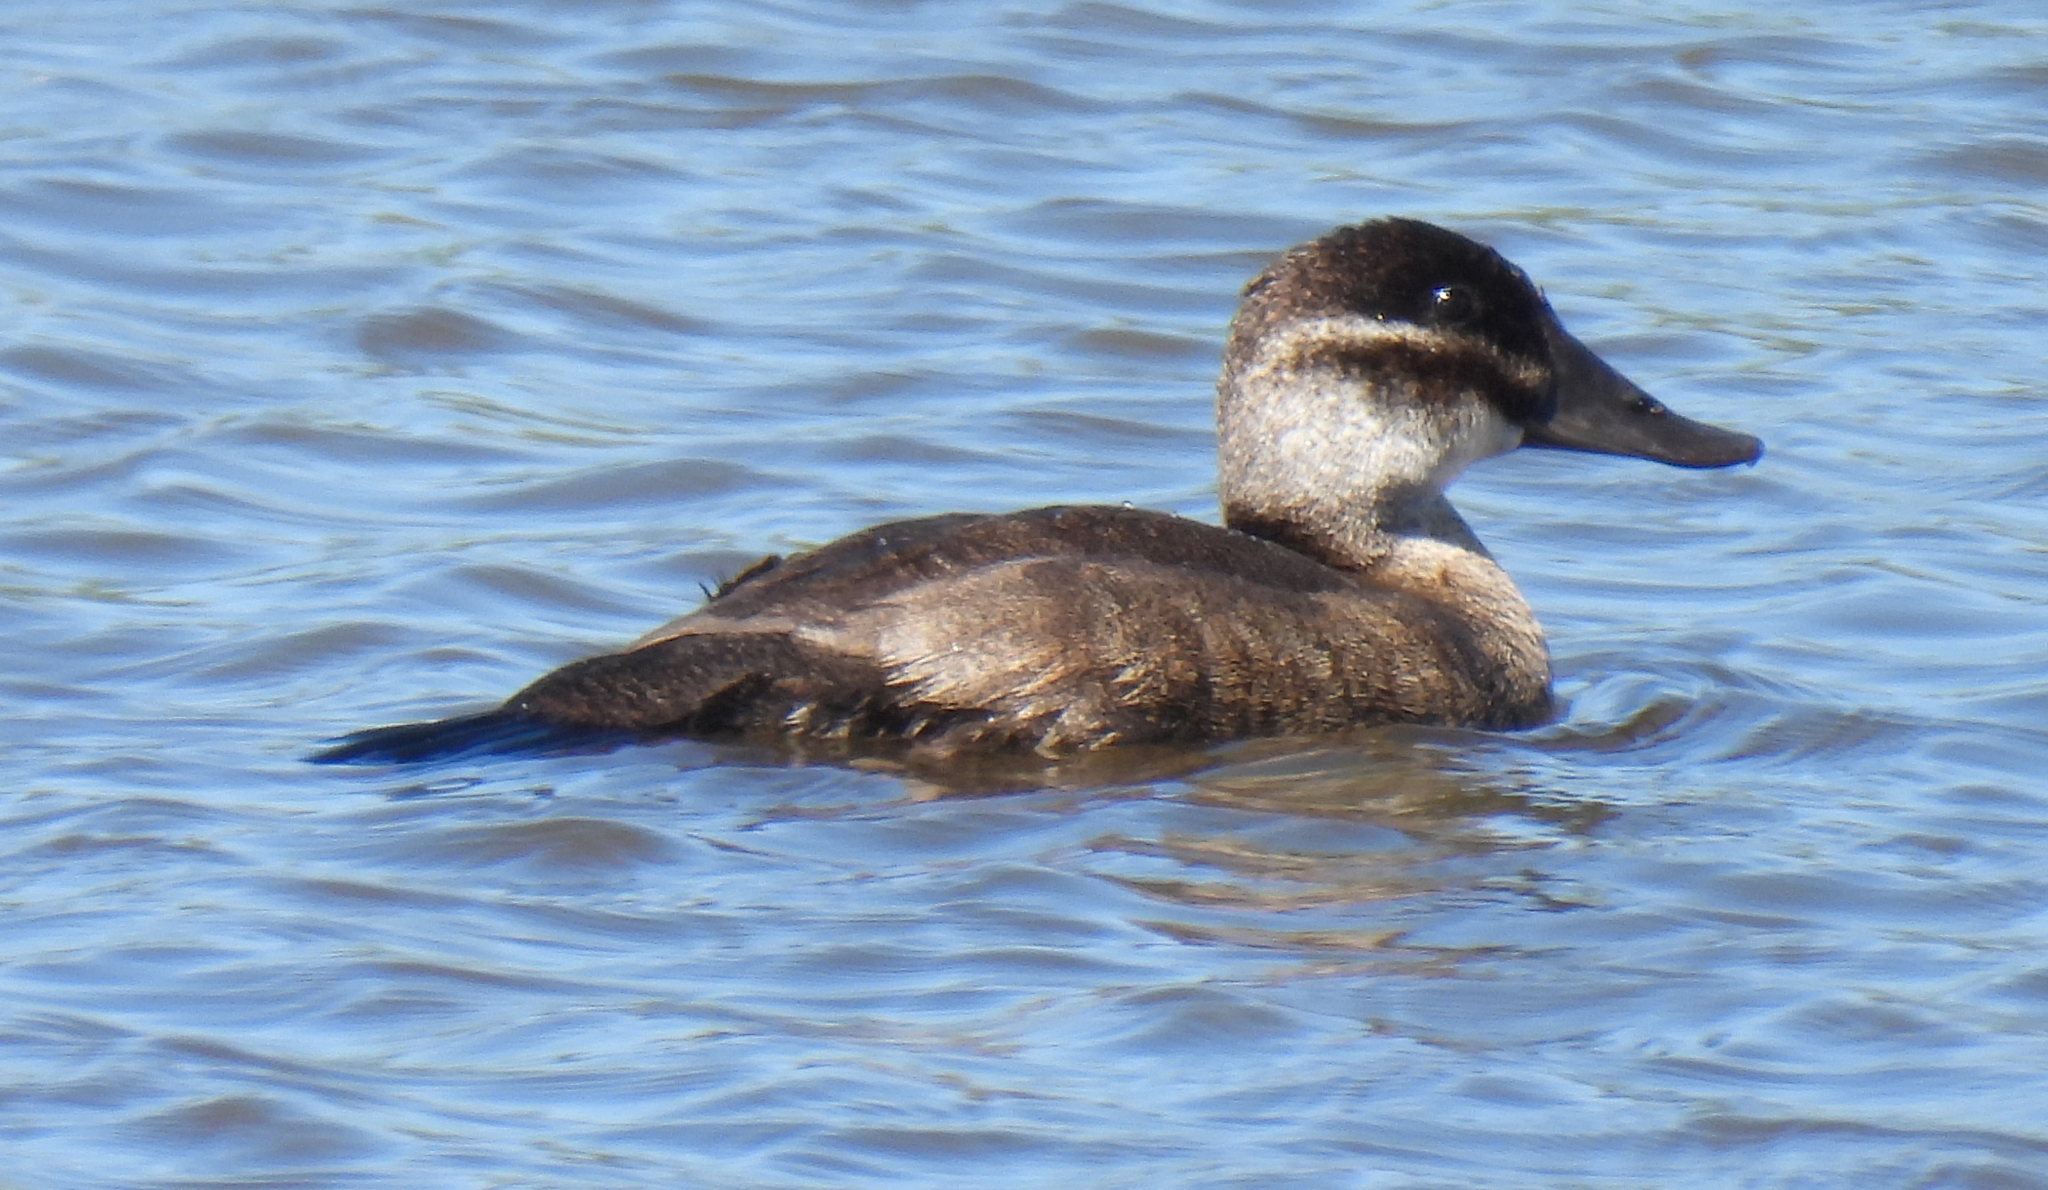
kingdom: Animalia
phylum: Chordata
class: Aves
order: Anseriformes
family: Anatidae
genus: Oxyura
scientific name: Oxyura maccoa
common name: Maccoa duck
